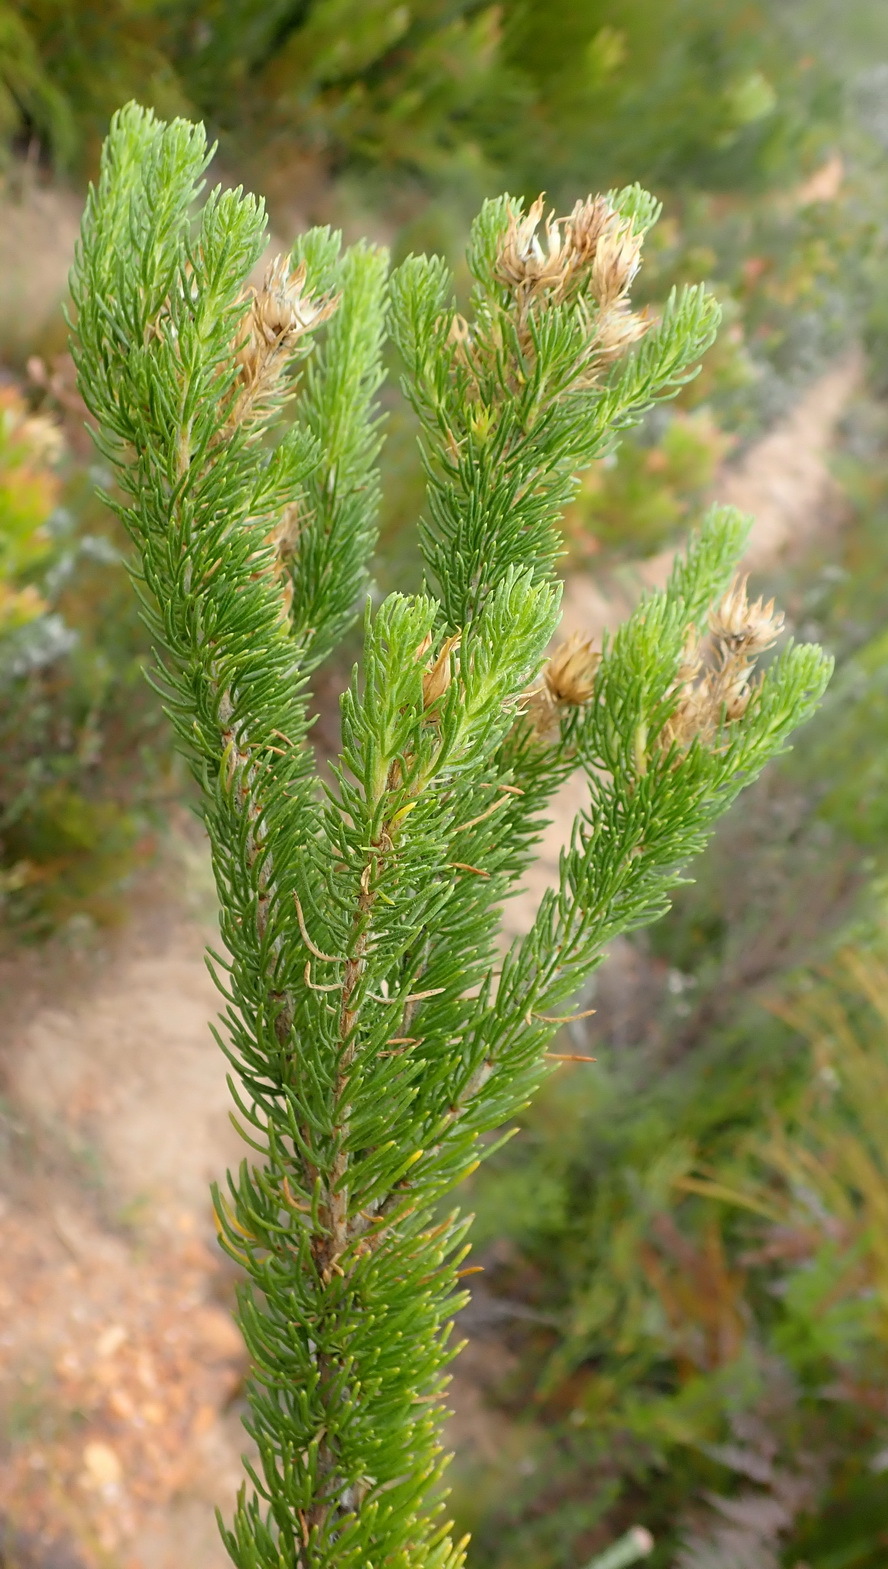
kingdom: Plantae
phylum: Tracheophyta
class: Magnoliopsida
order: Asterales
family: Asteraceae
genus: Pteronia
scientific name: Pteronia camphorata
